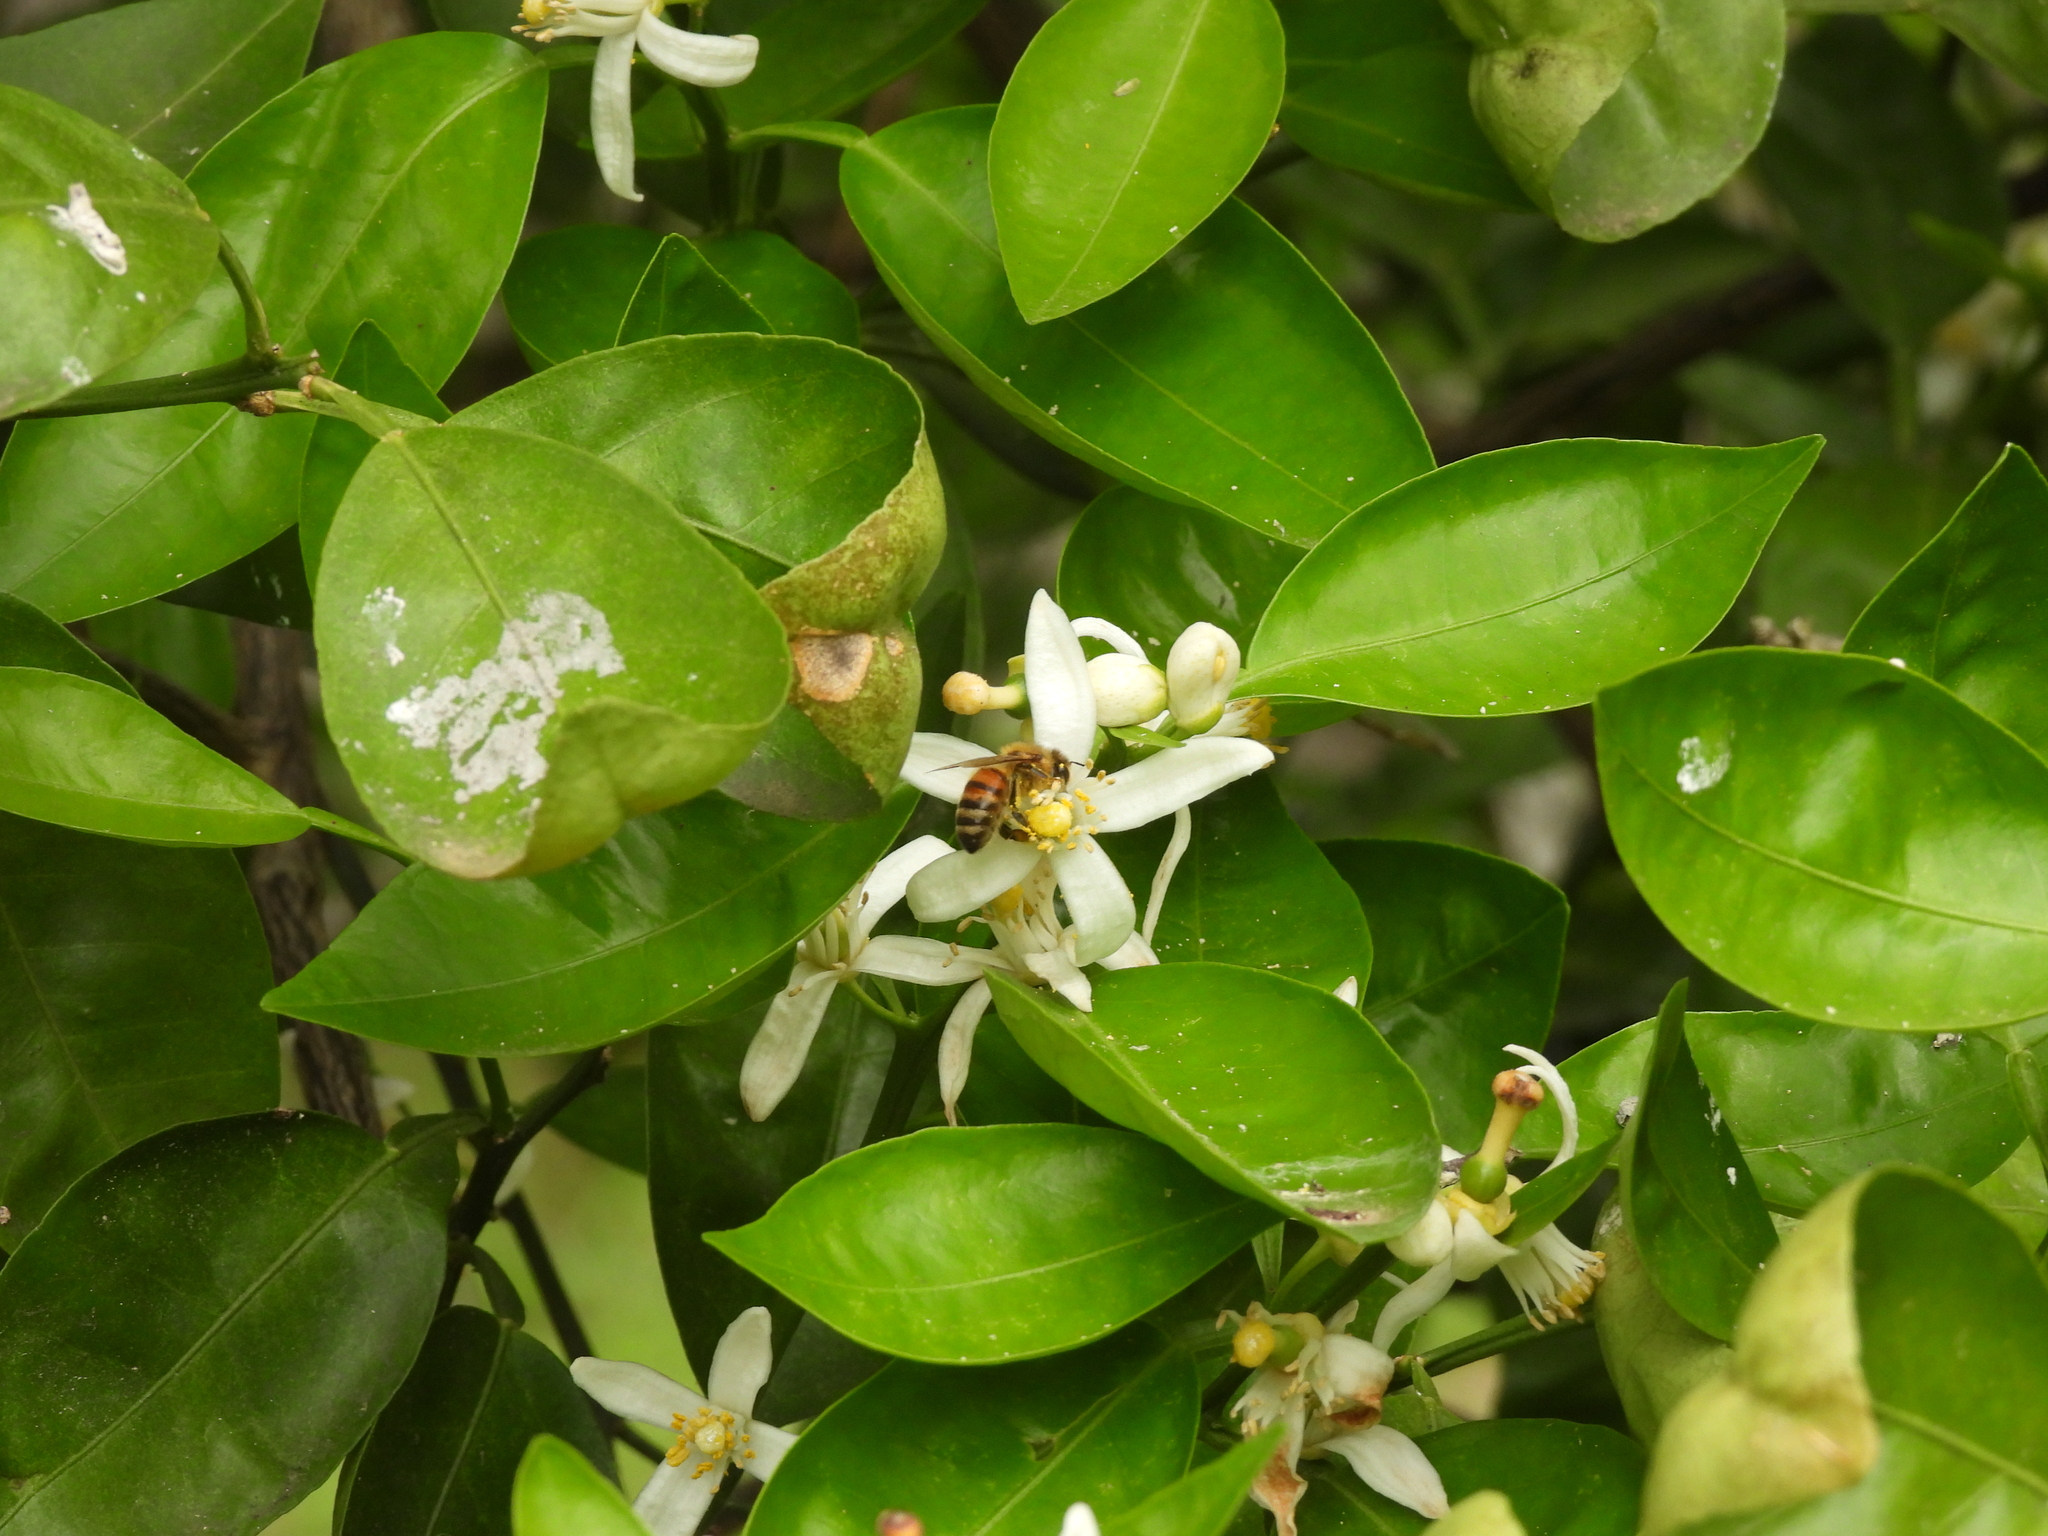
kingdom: Animalia
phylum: Arthropoda
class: Insecta
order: Hymenoptera
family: Apidae
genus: Apis
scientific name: Apis mellifera
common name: Honey bee
